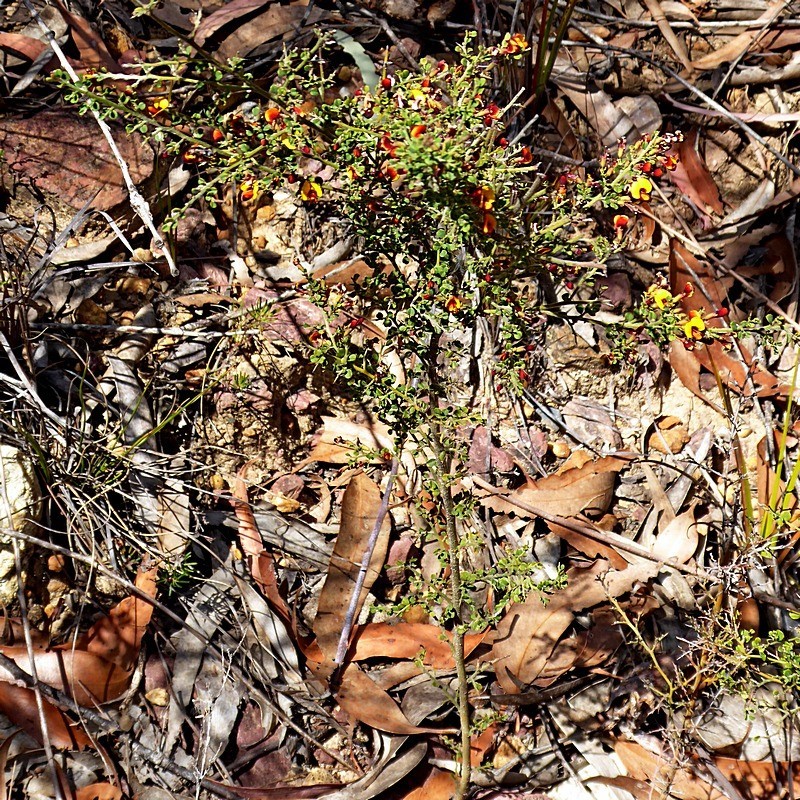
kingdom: Plantae
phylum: Tracheophyta
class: Magnoliopsida
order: Fabales
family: Fabaceae
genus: Bossiaea
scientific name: Bossiaea obcordata
